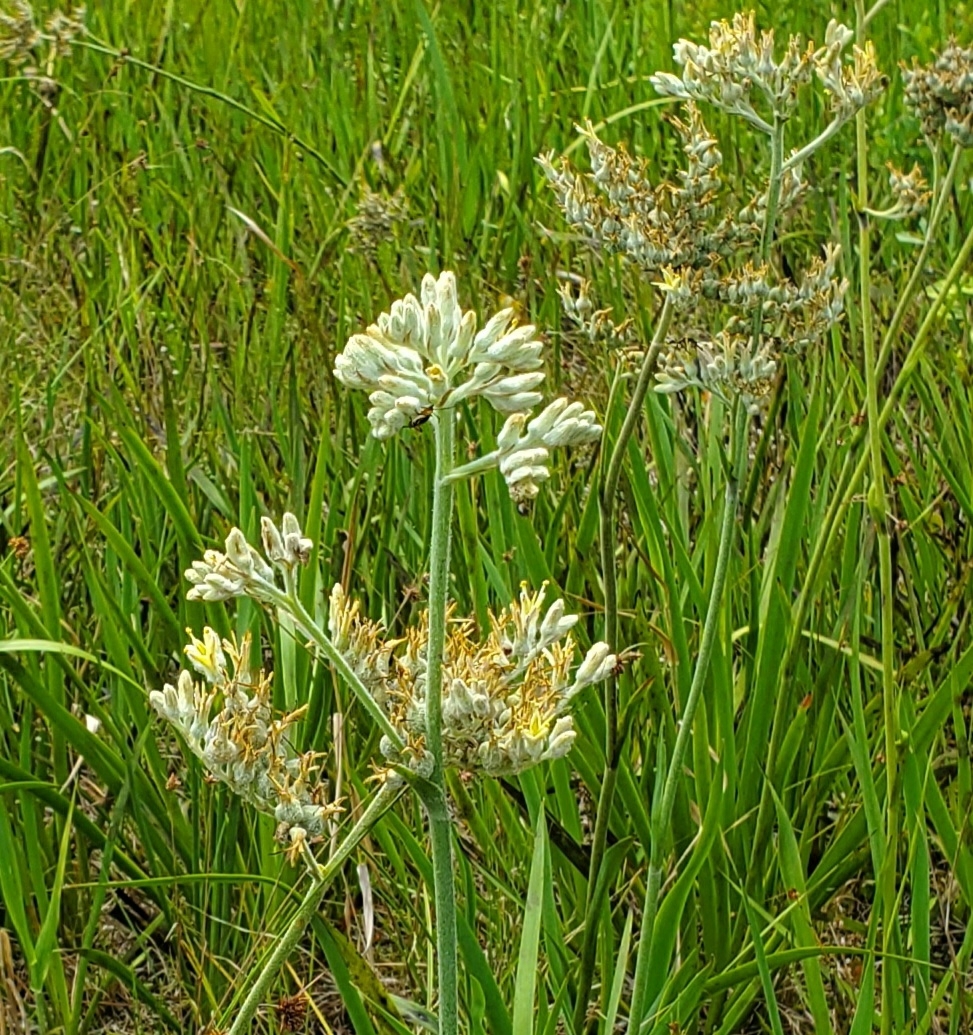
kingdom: Plantae
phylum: Tracheophyta
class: Liliopsida
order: Commelinales
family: Haemodoraceae
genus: Lachnanthes
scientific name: Lachnanthes caroliana
